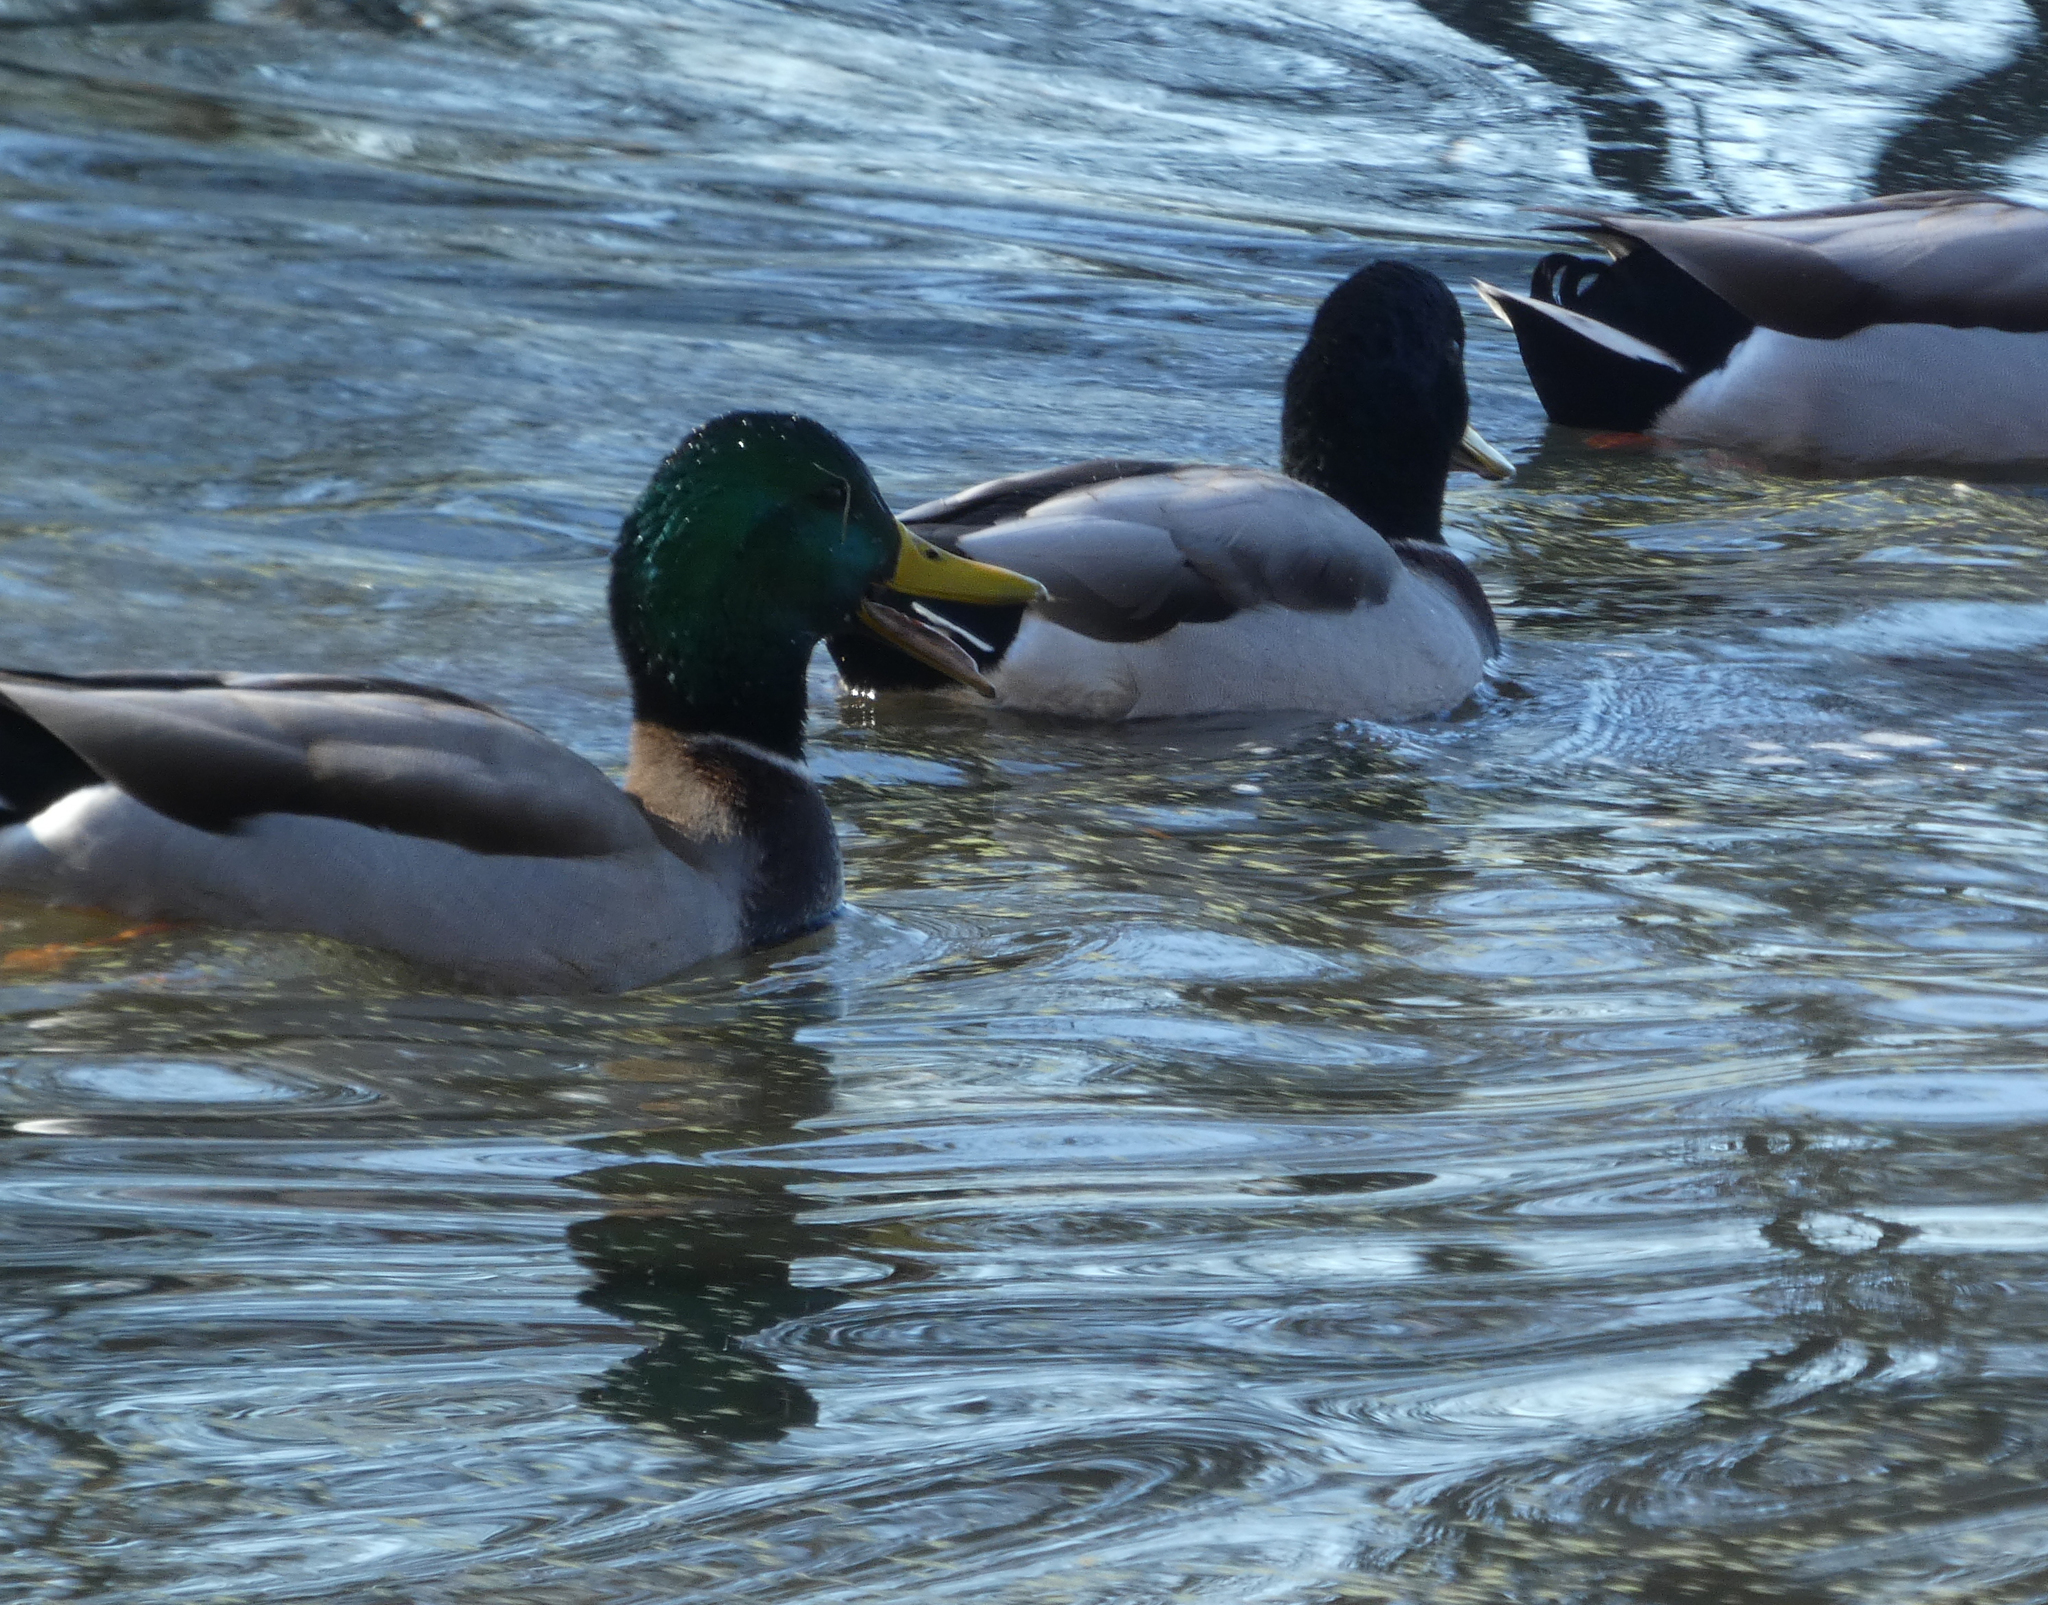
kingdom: Animalia
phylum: Chordata
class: Aves
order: Anseriformes
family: Anatidae
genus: Anas
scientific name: Anas platyrhynchos
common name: Mallard
